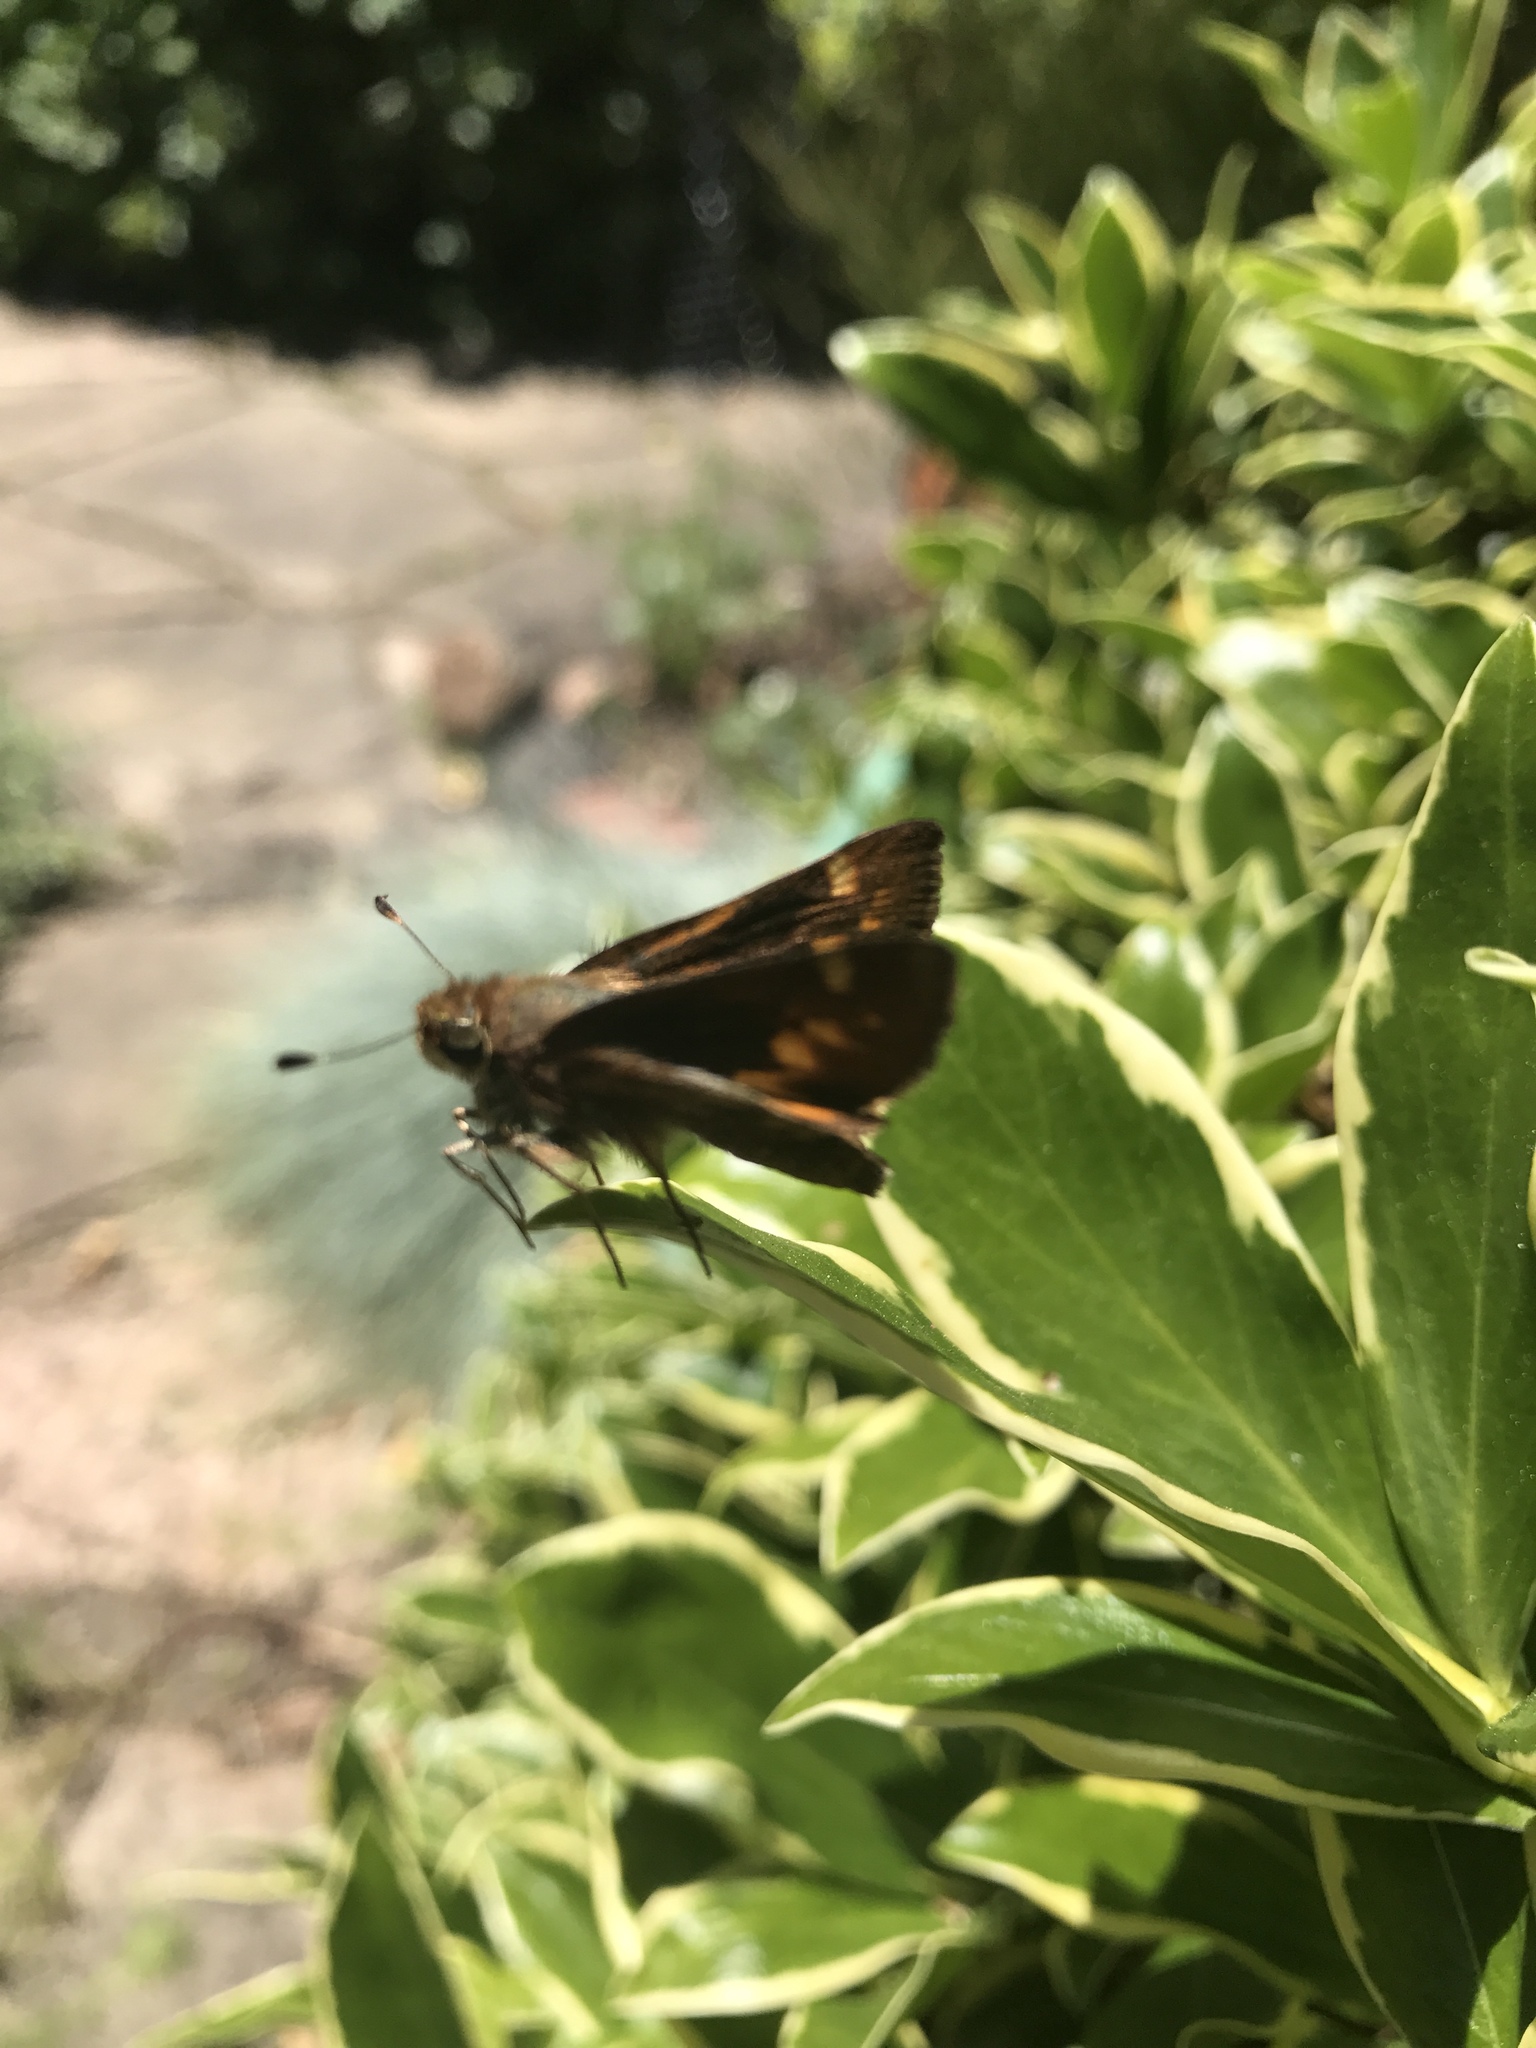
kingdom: Animalia
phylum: Arthropoda
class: Insecta
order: Lepidoptera
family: Hesperiidae
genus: Lon
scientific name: Lon melane
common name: Umber skipper
